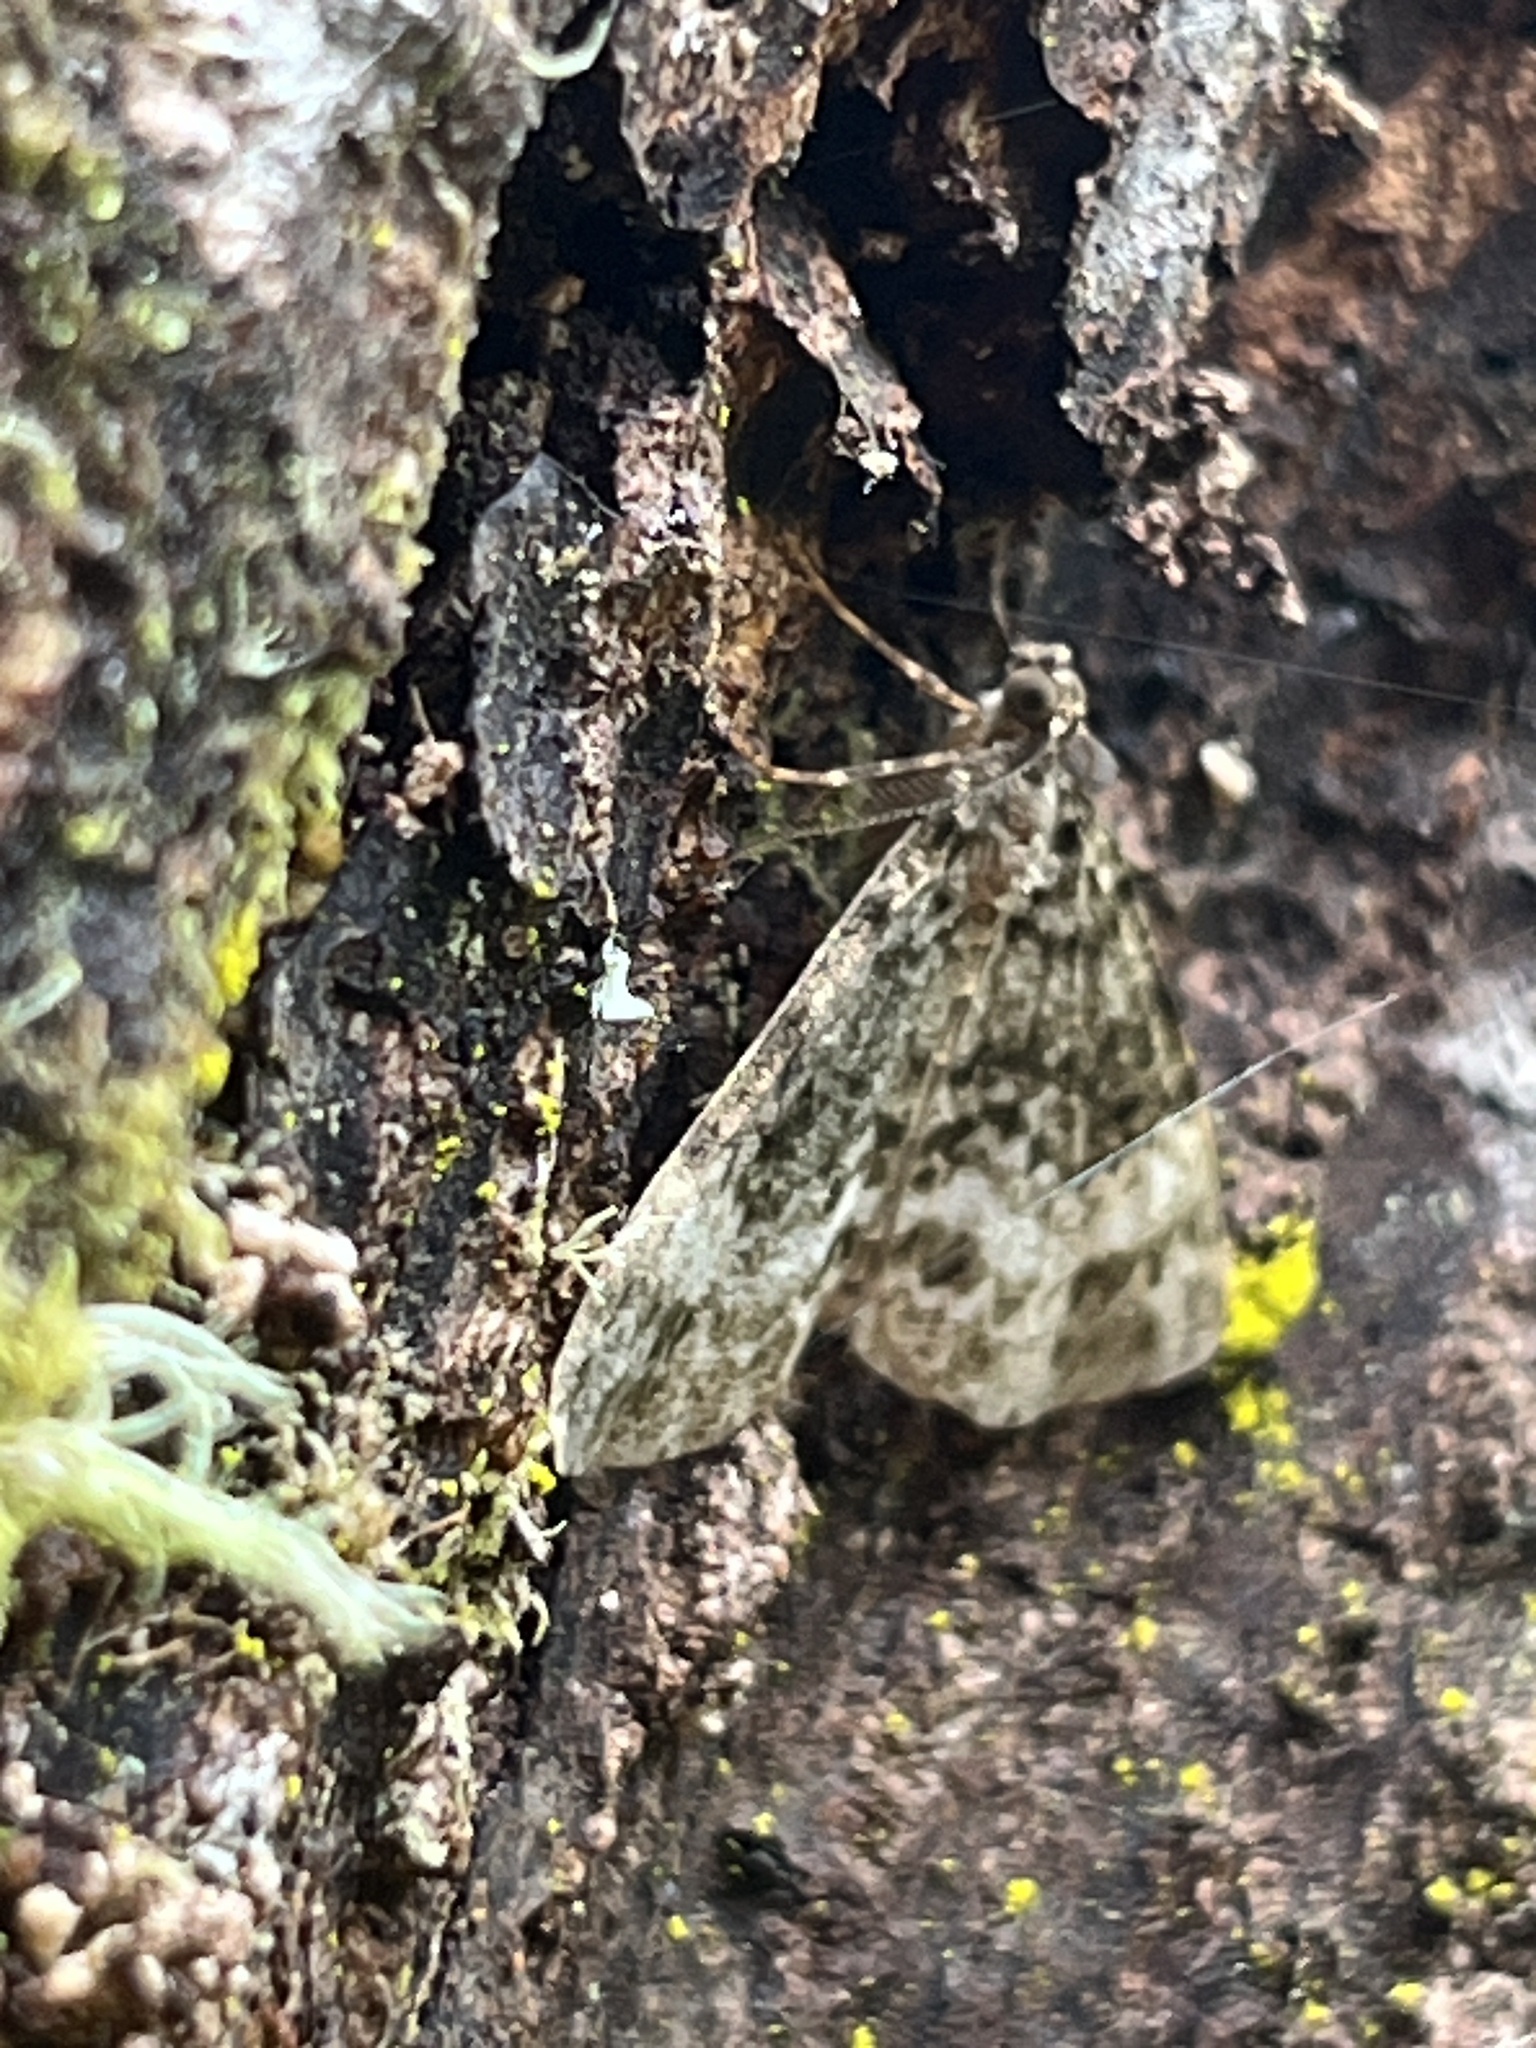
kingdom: Animalia
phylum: Arthropoda
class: Insecta
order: Lepidoptera
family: Geometridae
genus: Pseudocoremia
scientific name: Pseudocoremia indistincta
